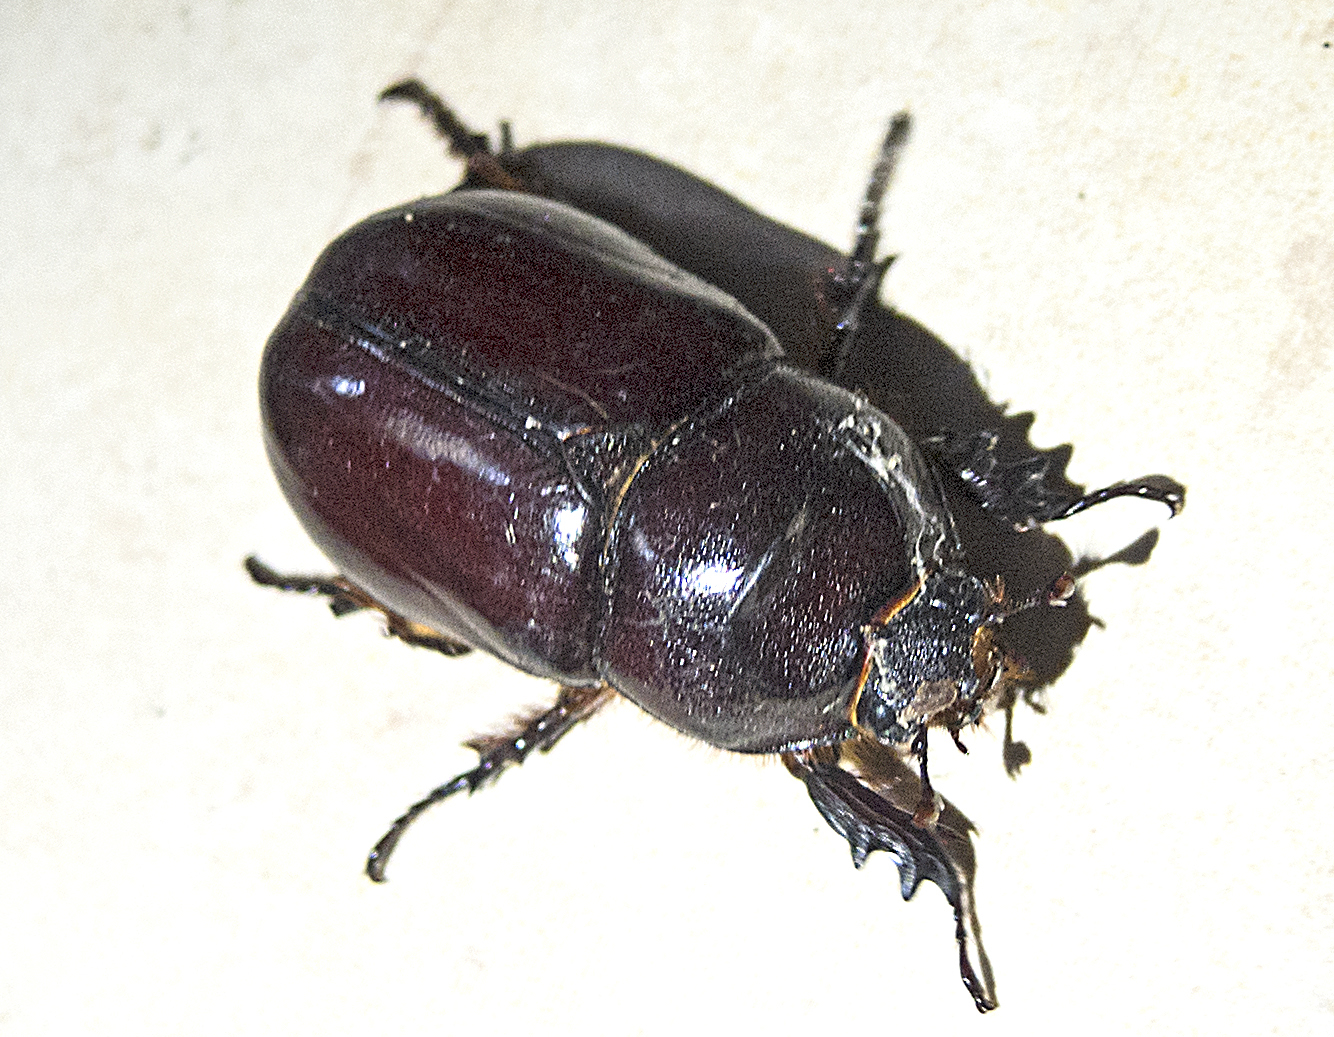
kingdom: Animalia
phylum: Arthropoda
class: Insecta
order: Coleoptera
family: Scarabaeidae
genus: Oryctes
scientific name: Oryctes nasicornis
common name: European rhinoceros beetle
